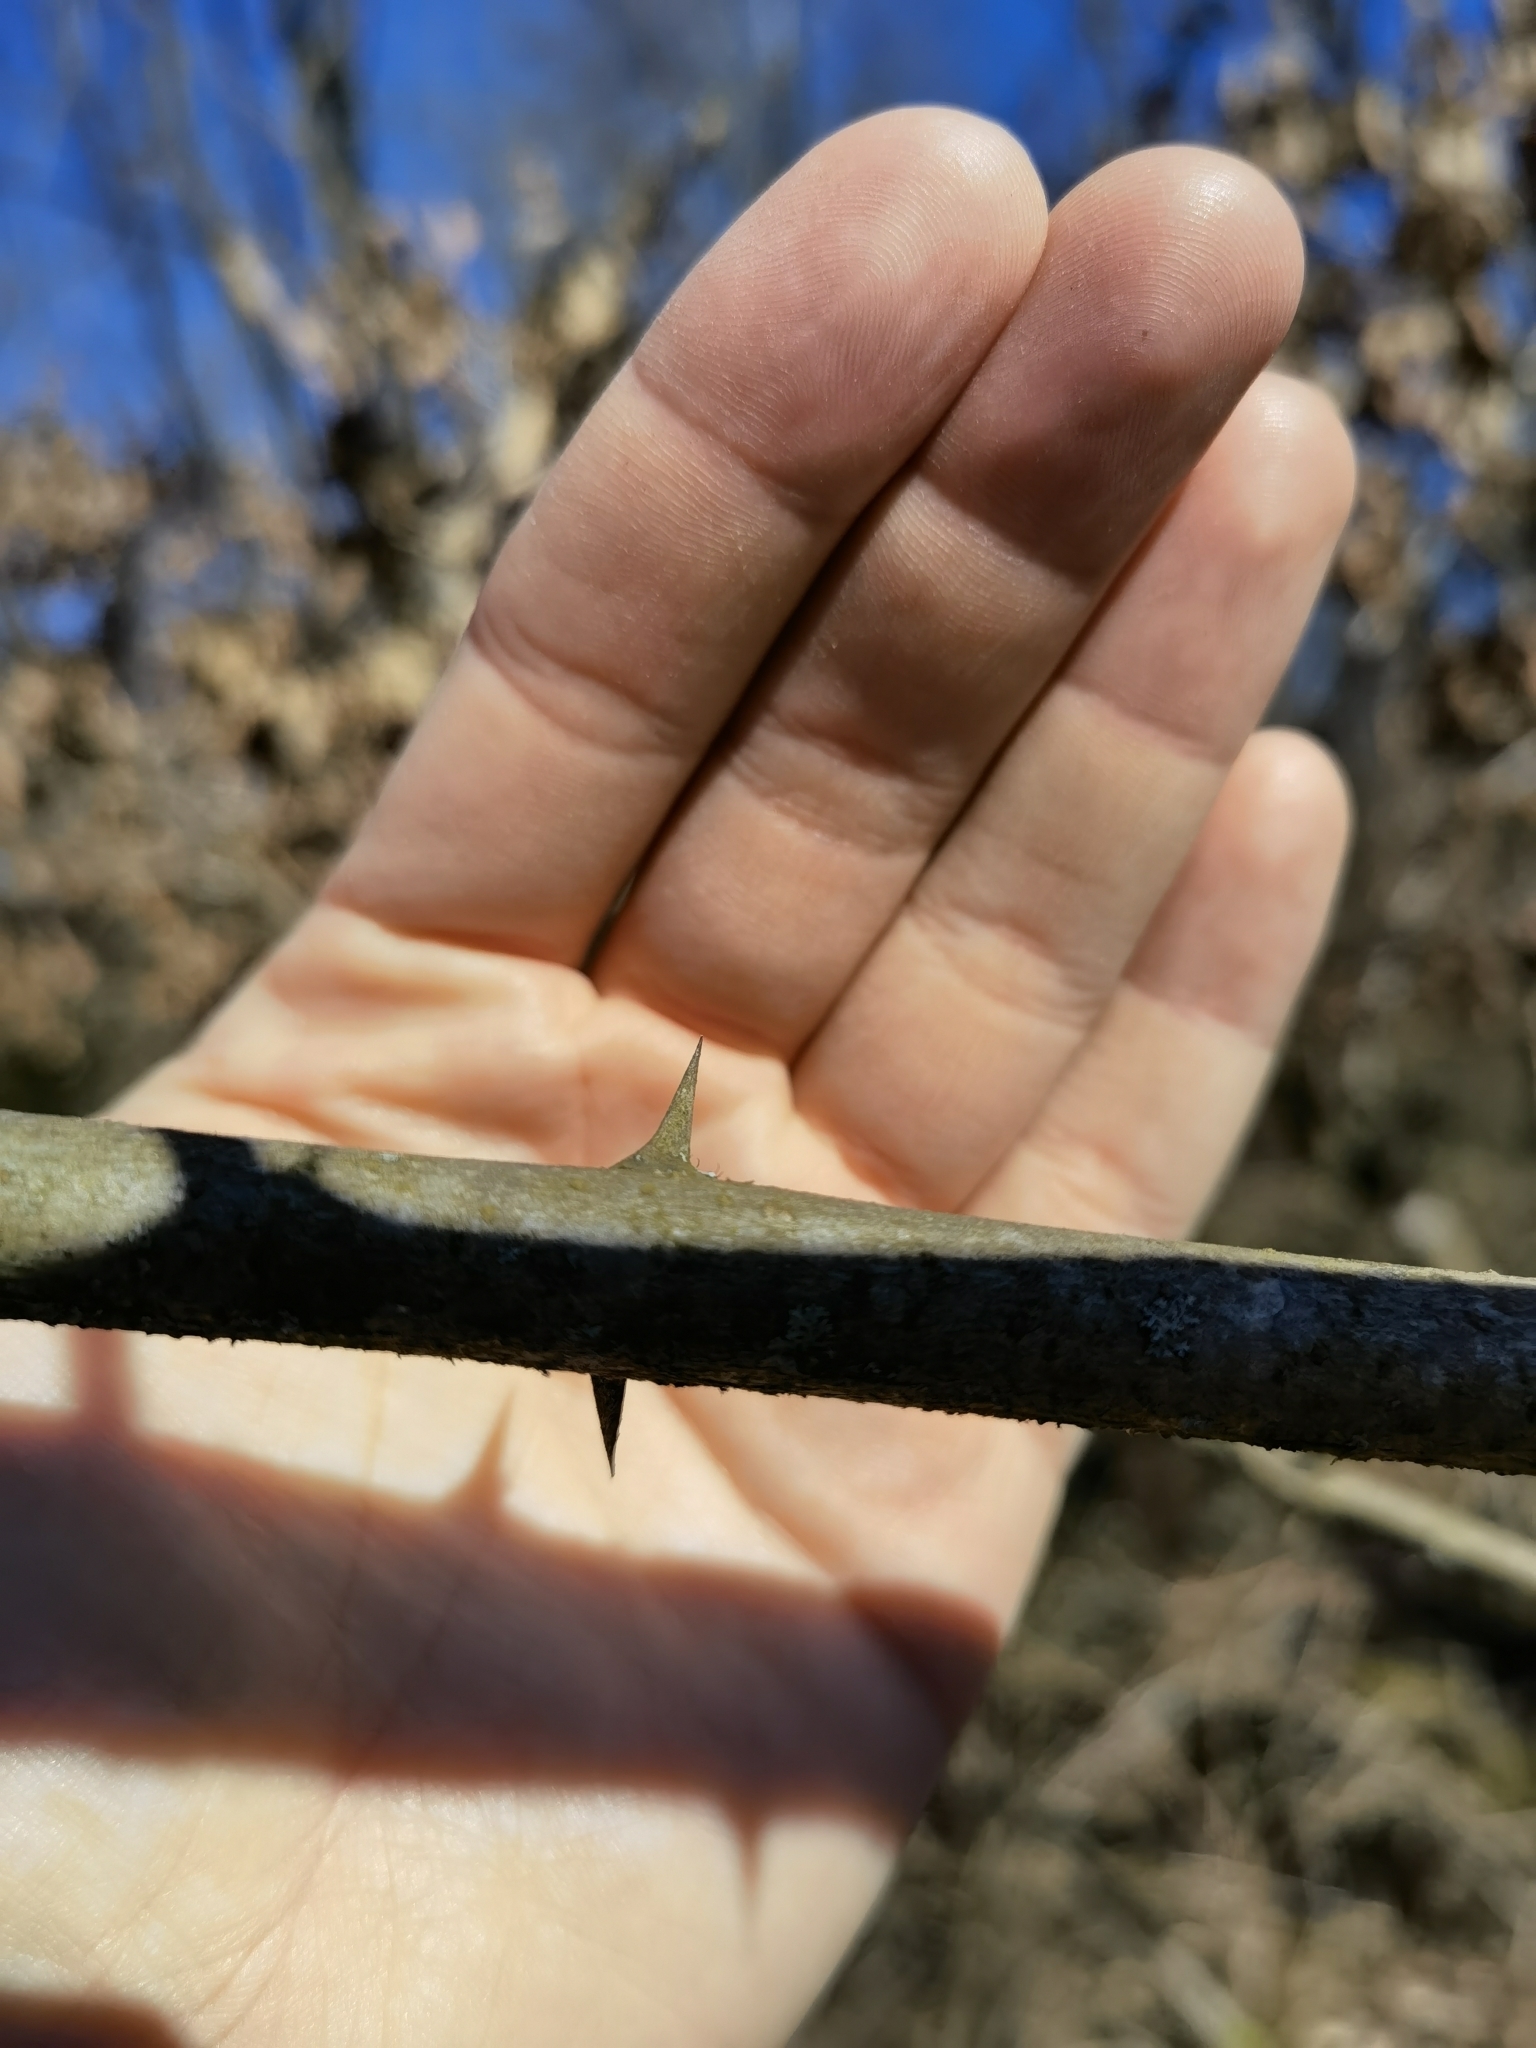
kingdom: Plantae
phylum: Tracheophyta
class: Magnoliopsida
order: Fabales
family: Fabaceae
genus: Robinia
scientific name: Robinia pseudoacacia
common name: Black locust
